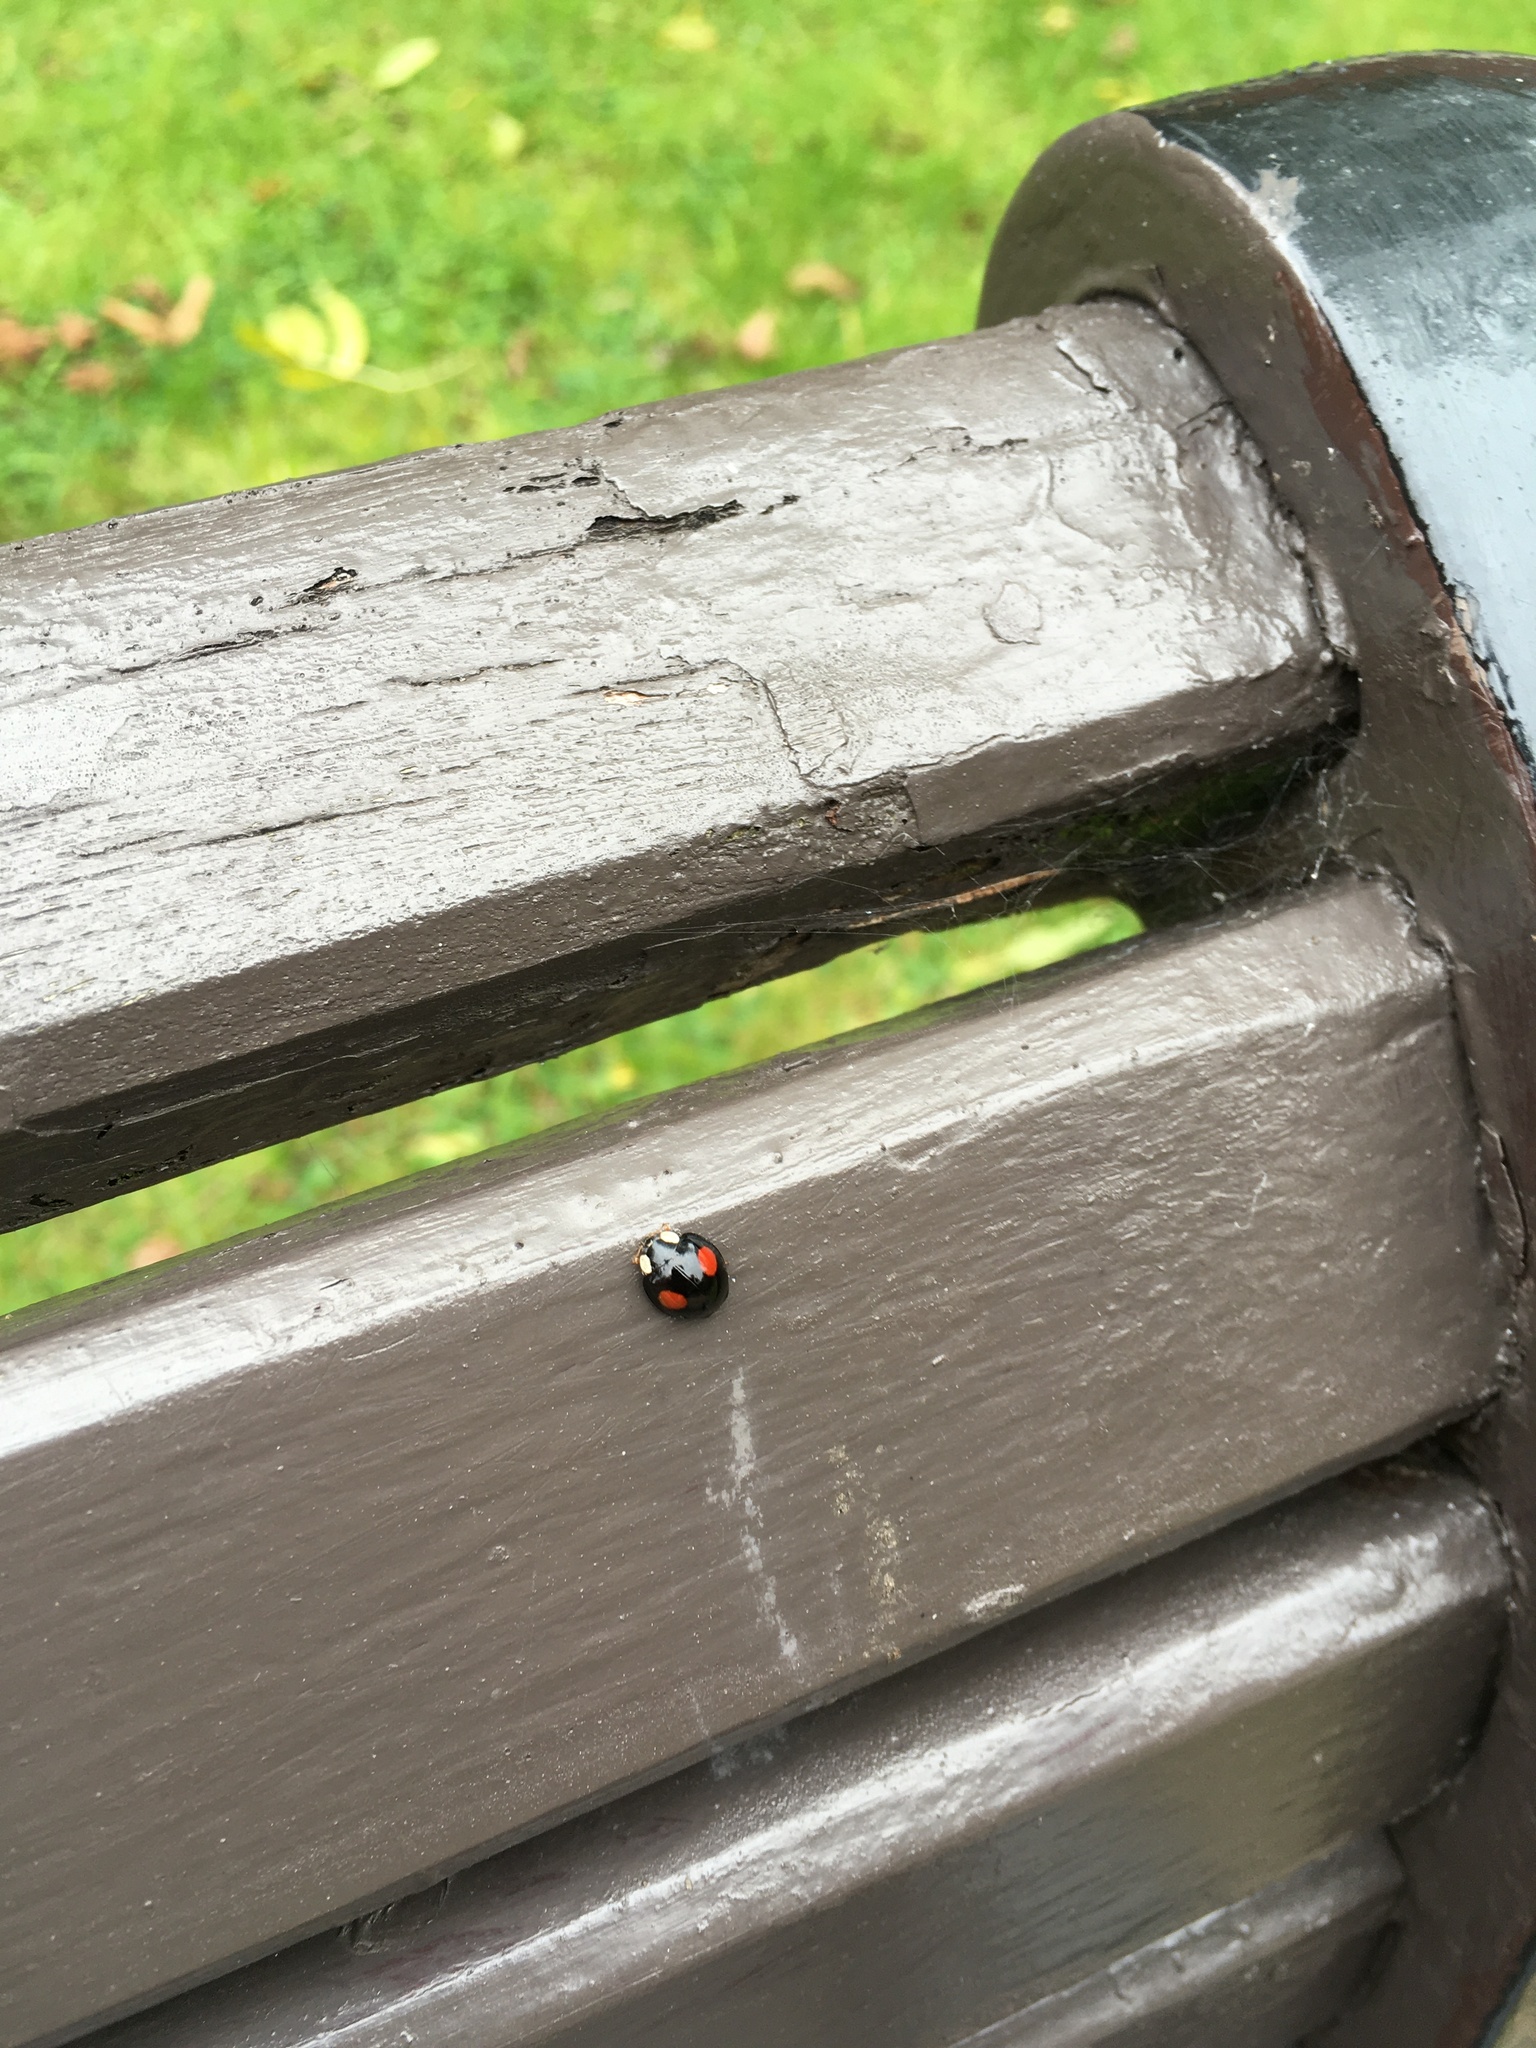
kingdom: Animalia
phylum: Arthropoda
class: Insecta
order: Coleoptera
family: Coccinellidae
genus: Harmonia
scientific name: Harmonia axyridis
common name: Harlequin ladybird
